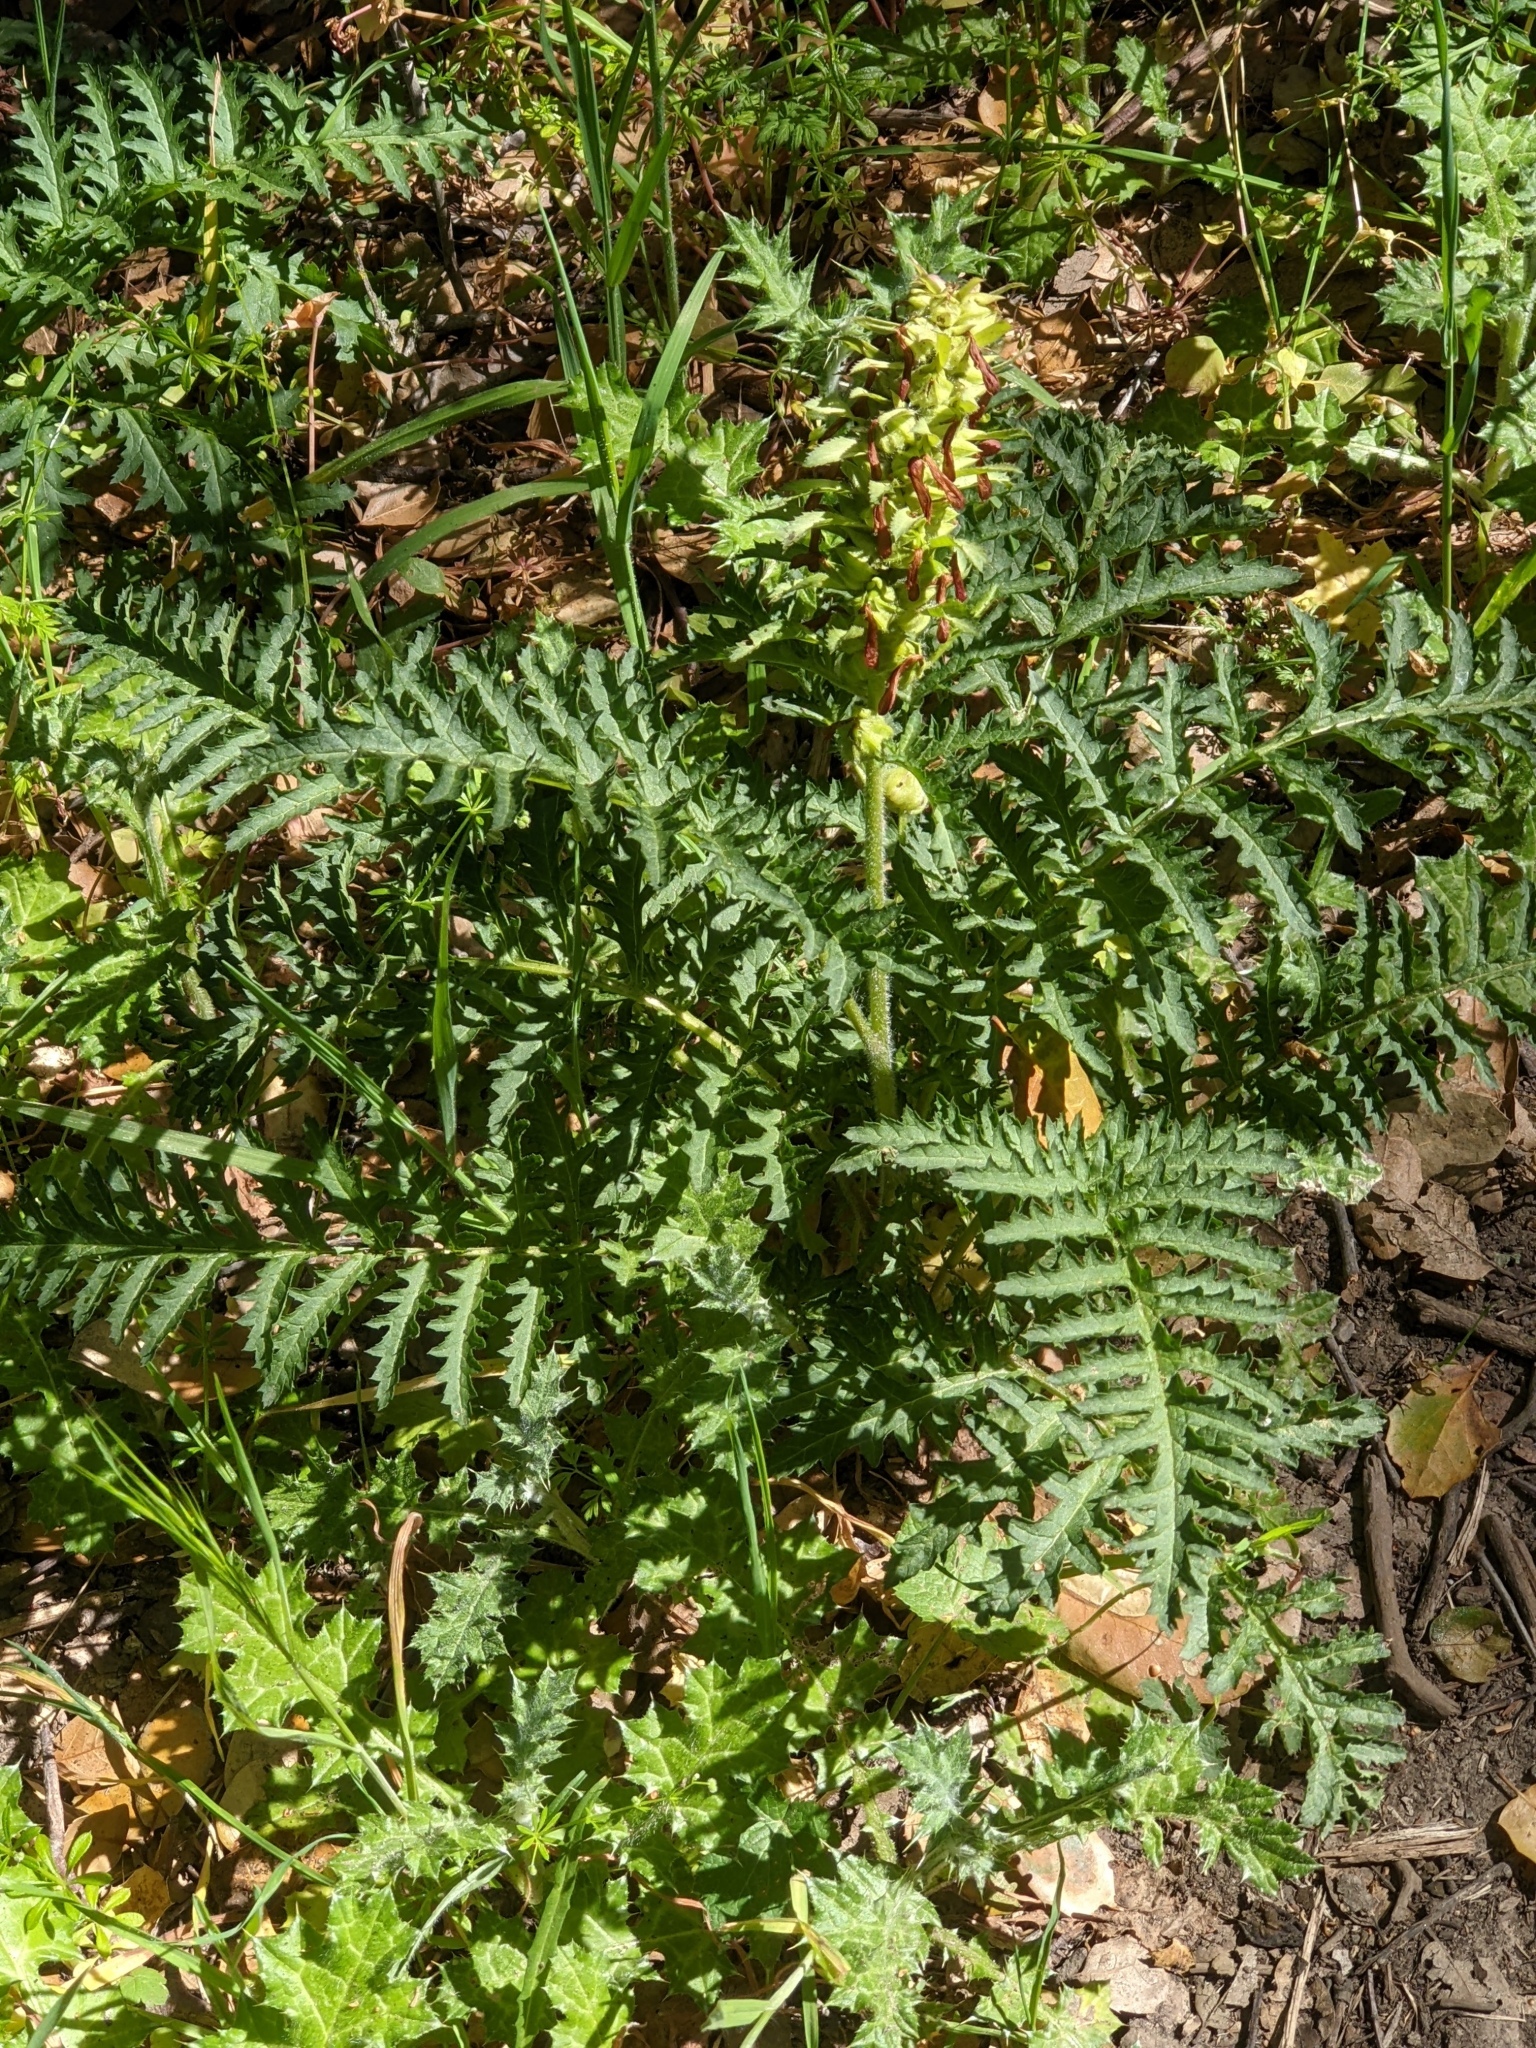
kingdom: Plantae
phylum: Tracheophyta
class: Magnoliopsida
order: Lamiales
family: Orobanchaceae
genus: Pedicularis
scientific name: Pedicularis densiflora
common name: Indian warrior
